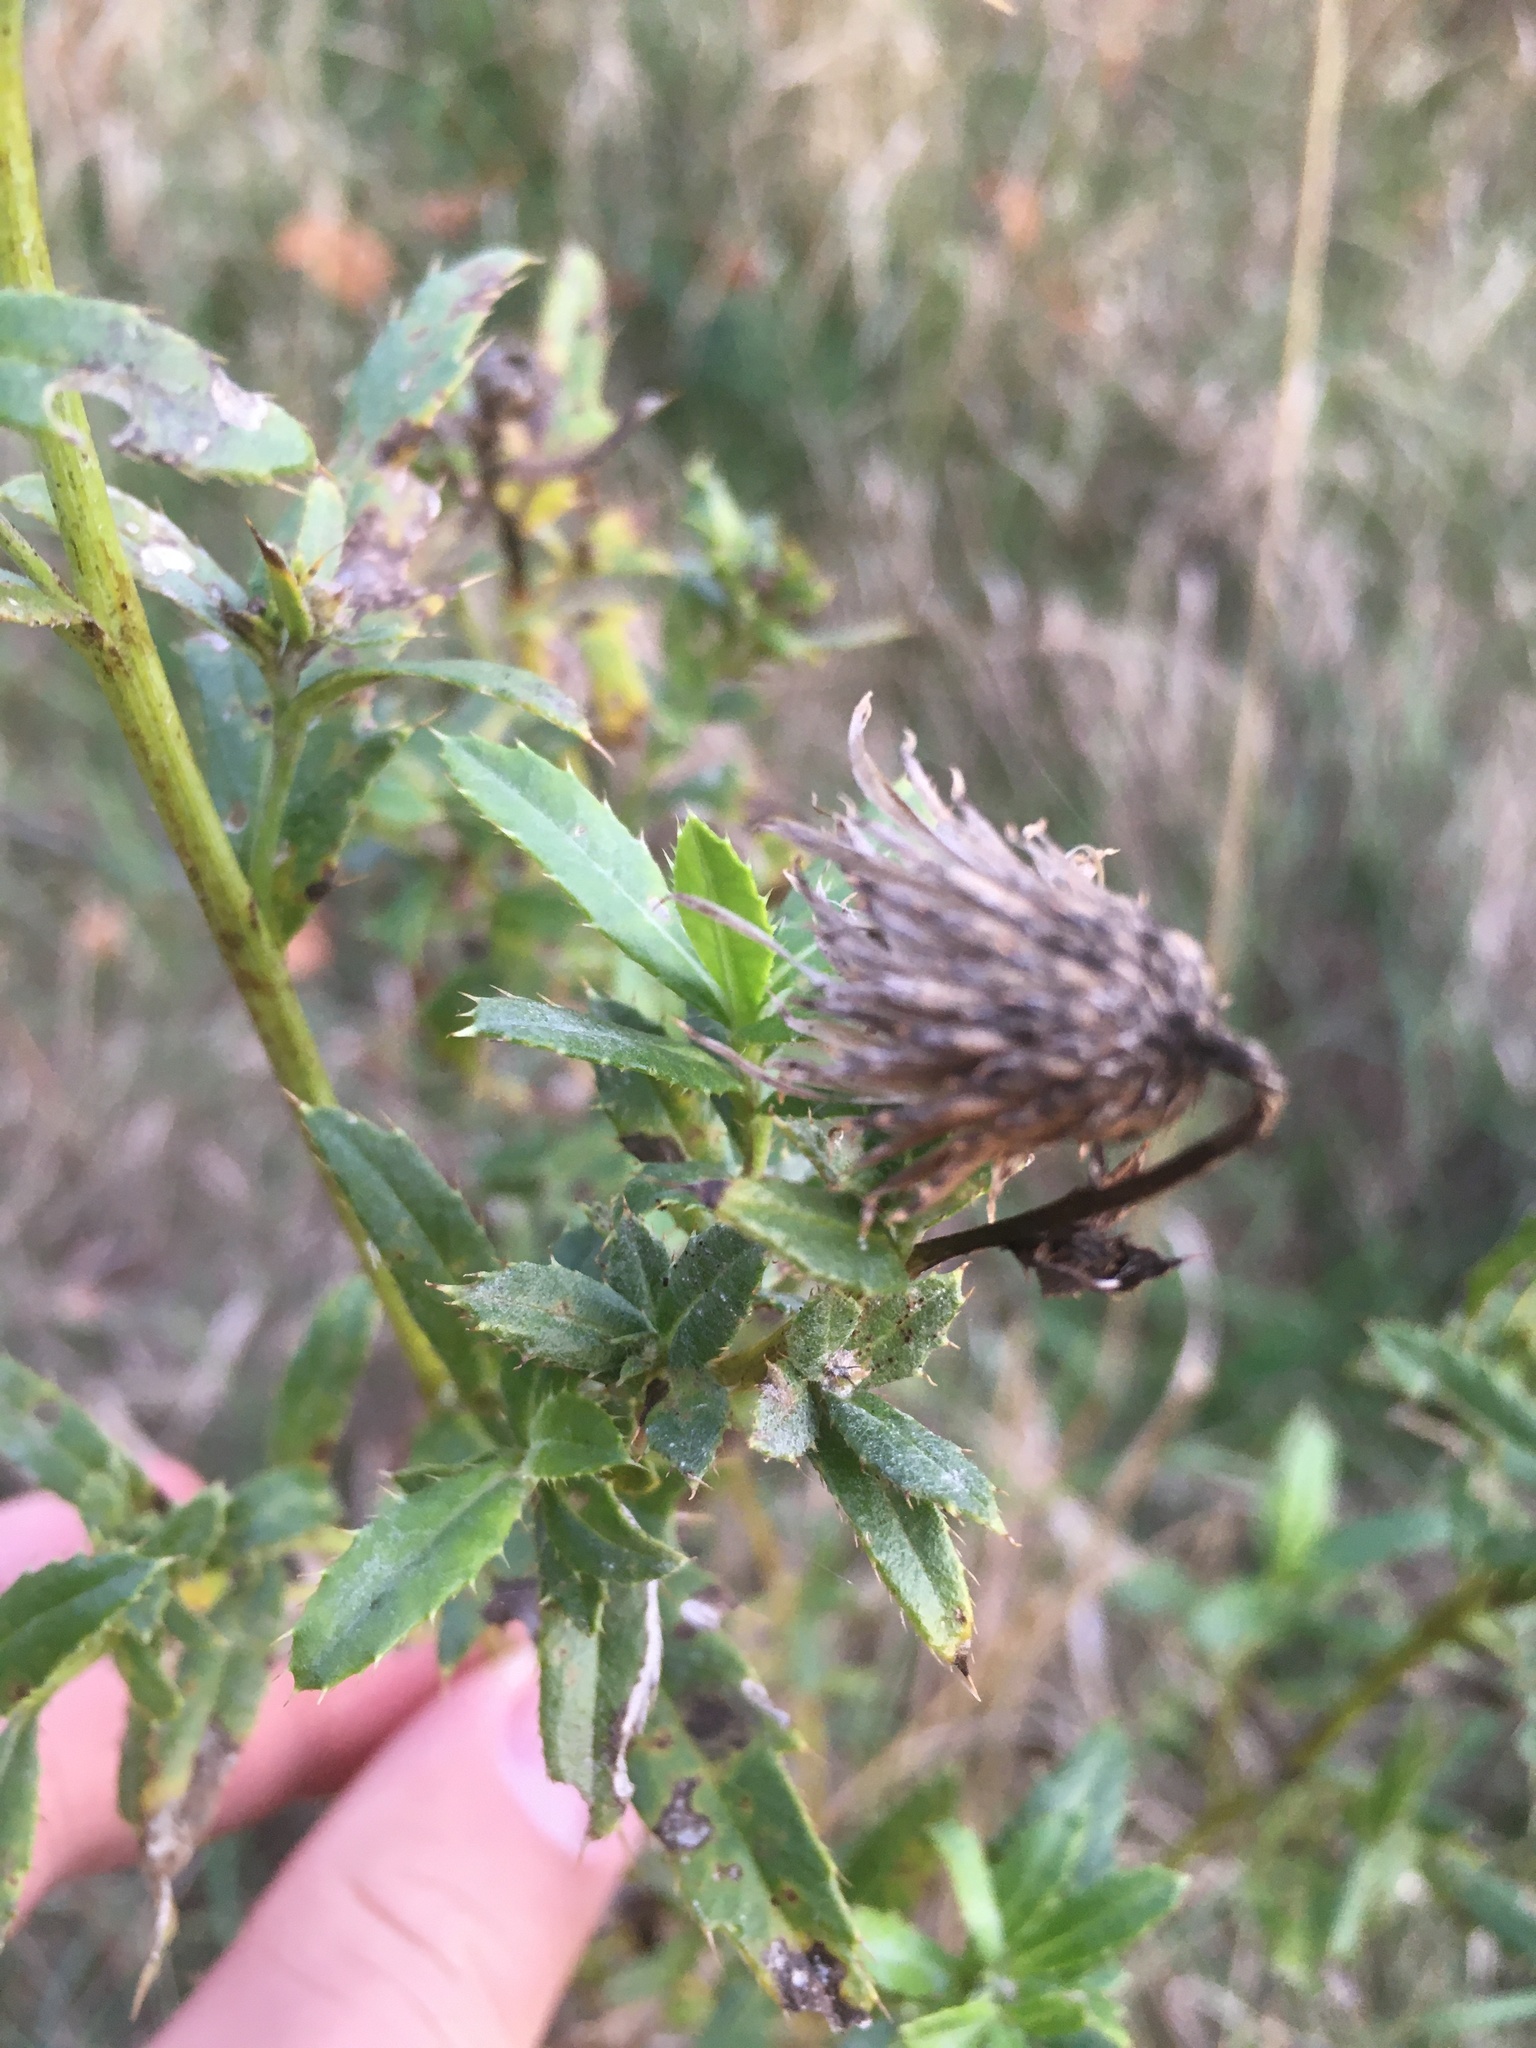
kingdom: Plantae
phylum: Tracheophyta
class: Magnoliopsida
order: Asterales
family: Asteraceae
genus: Cirsium
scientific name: Cirsium arvense
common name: Creeping thistle
